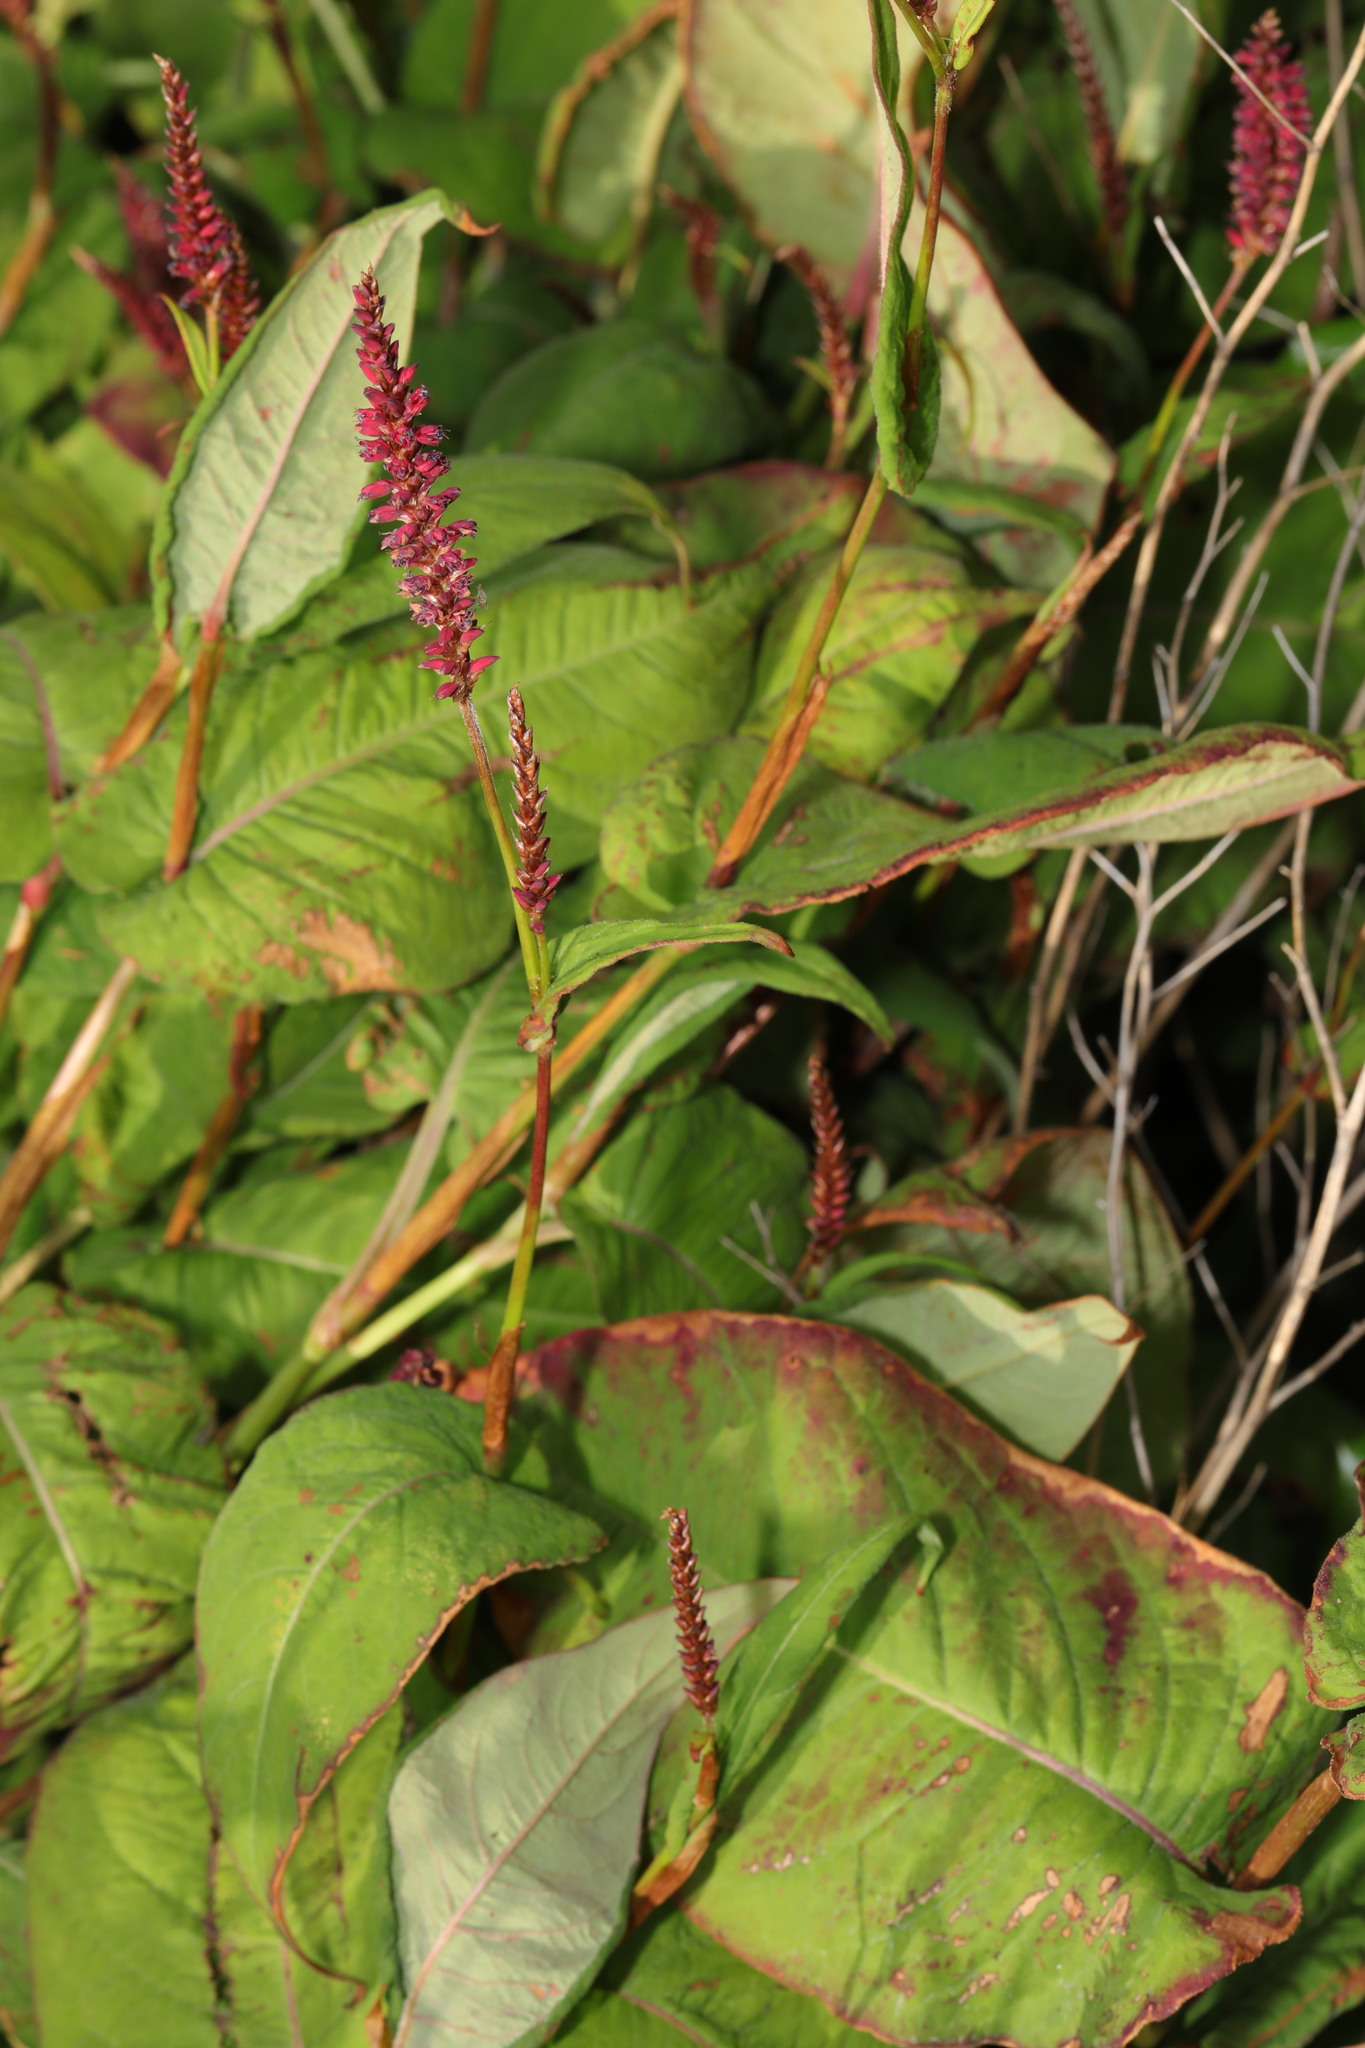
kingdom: Plantae
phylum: Tracheophyta
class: Magnoliopsida
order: Caryophyllales
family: Polygonaceae
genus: Bistorta
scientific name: Bistorta amplexicaulis
